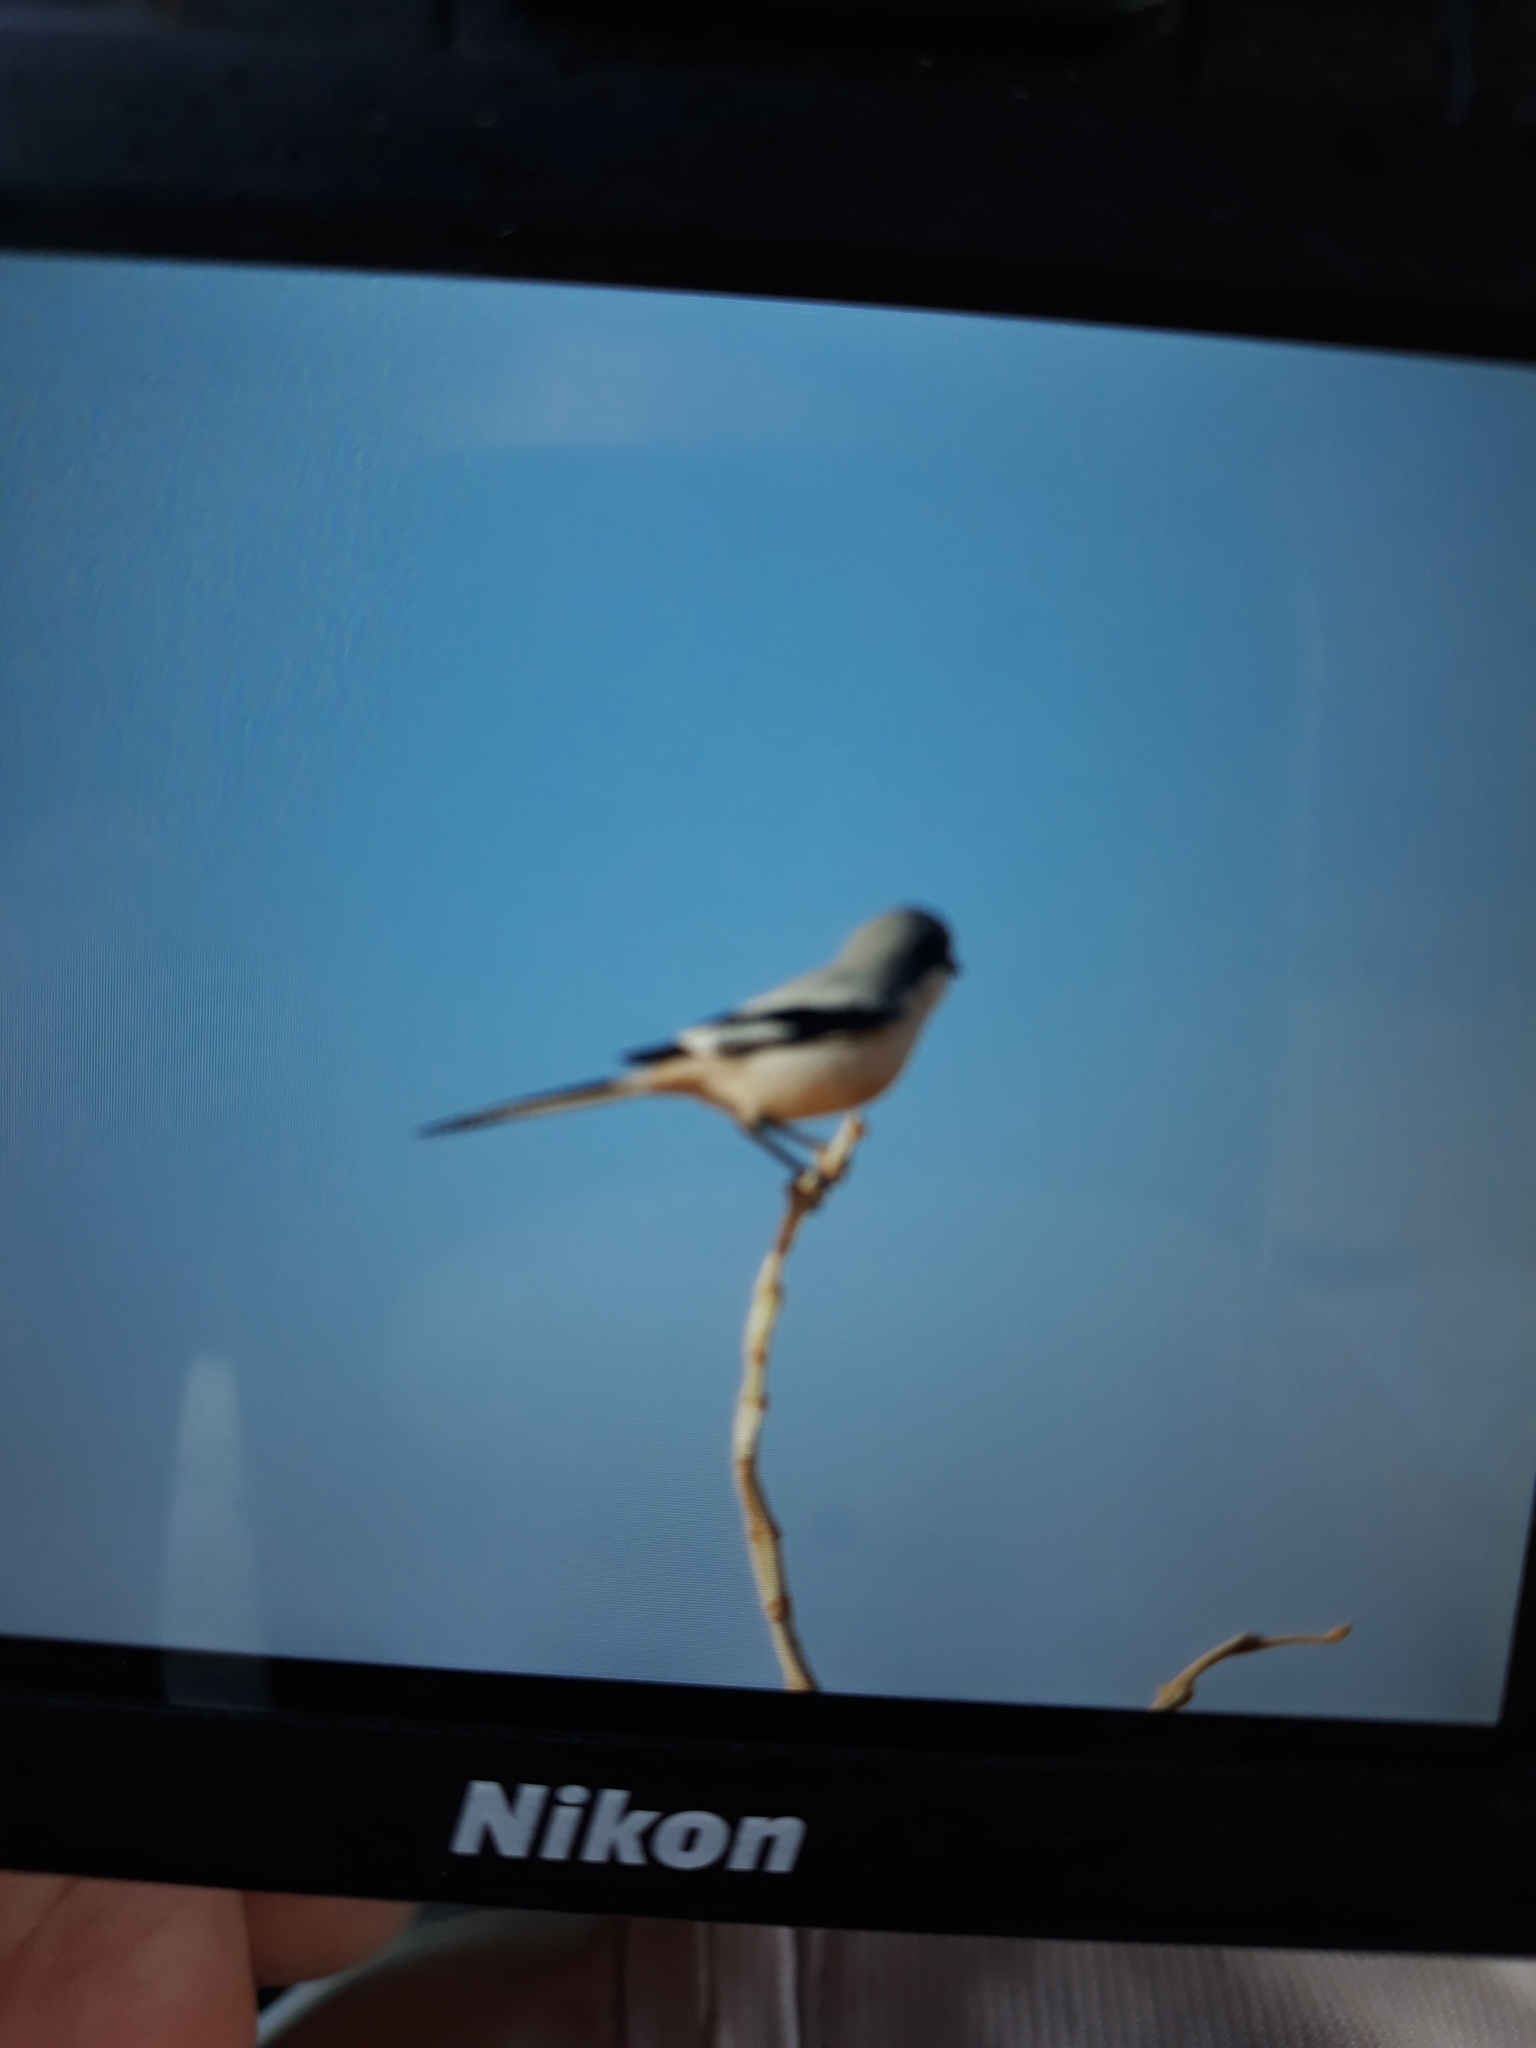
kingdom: Animalia
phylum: Chordata
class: Aves
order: Passeriformes
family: Laniidae
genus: Lanius
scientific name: Lanius excubitor
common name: Great grey shrike
